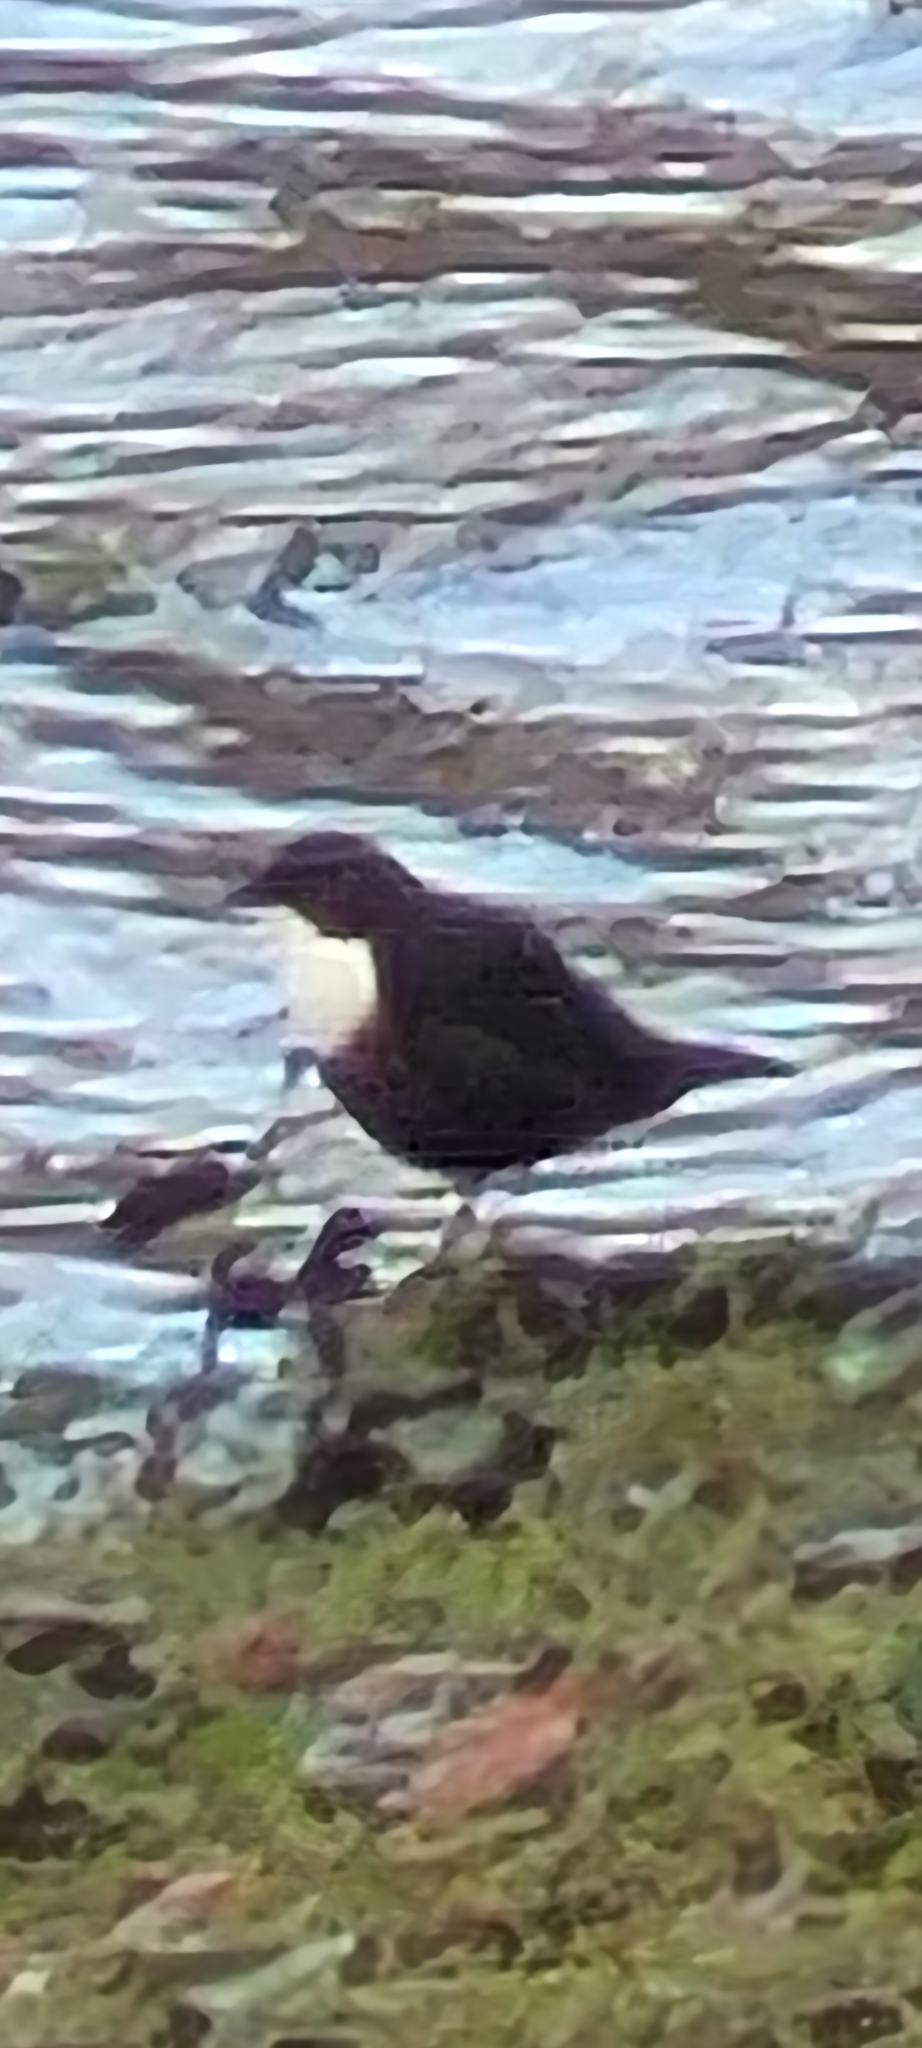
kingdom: Animalia
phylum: Chordata
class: Aves
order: Passeriformes
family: Cinclidae
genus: Cinclus
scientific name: Cinclus cinclus
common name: White-throated dipper
